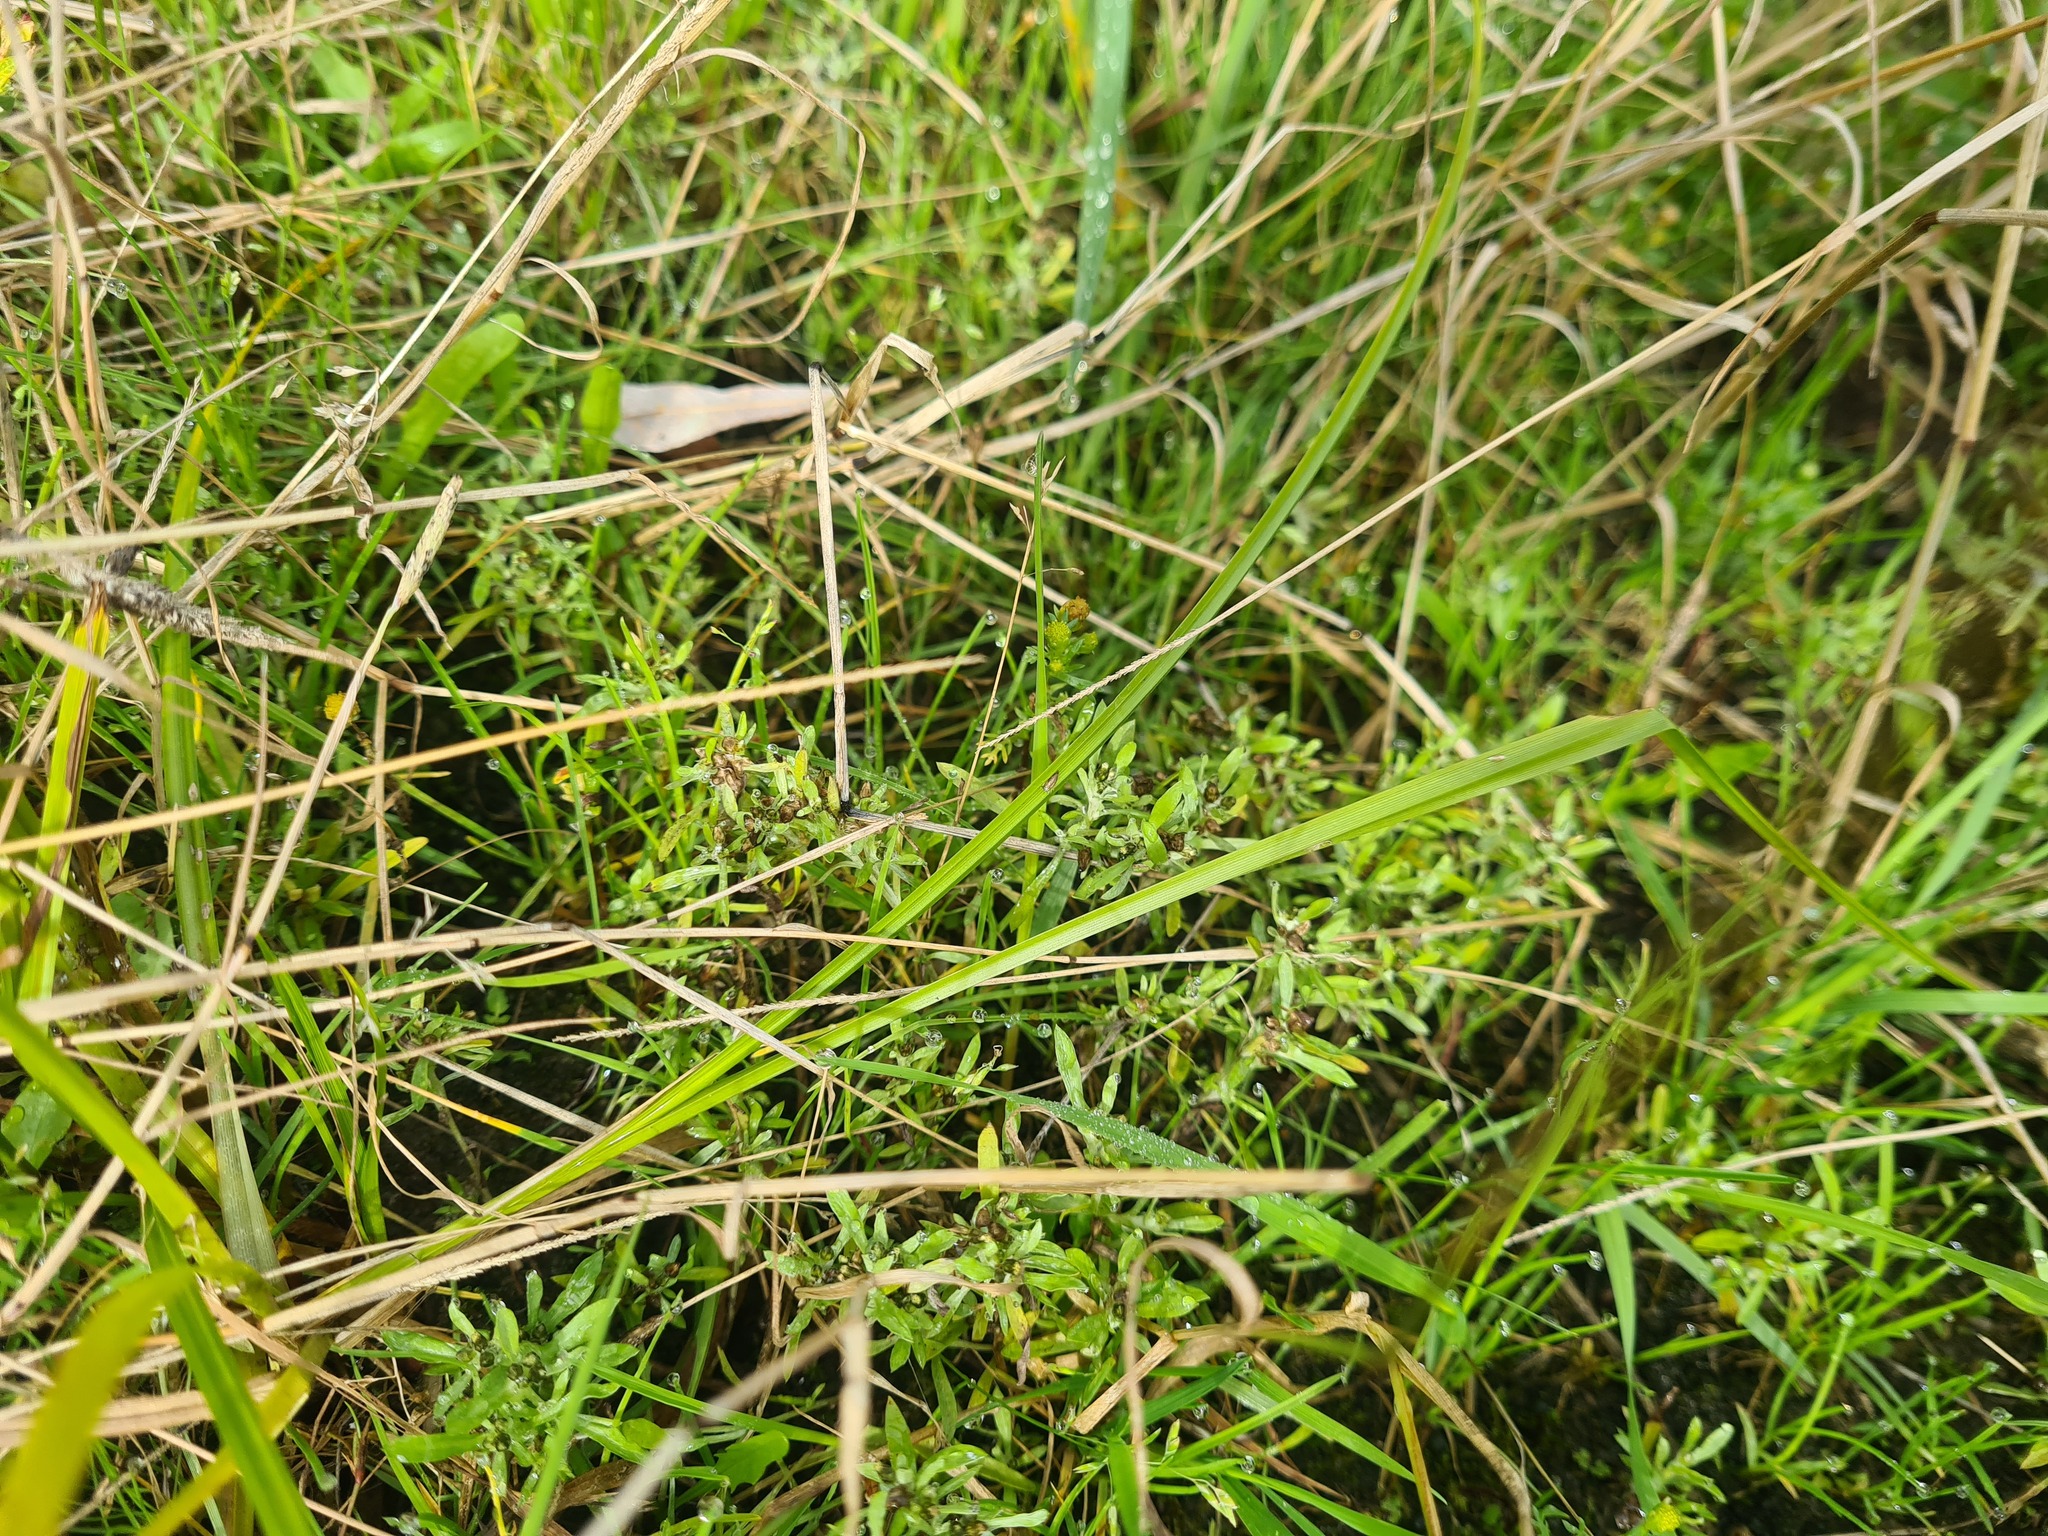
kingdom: Plantae
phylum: Tracheophyta
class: Magnoliopsida
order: Asterales
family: Asteraceae
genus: Gnaphalium
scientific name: Gnaphalium uliginosum
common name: Marsh cudweed
